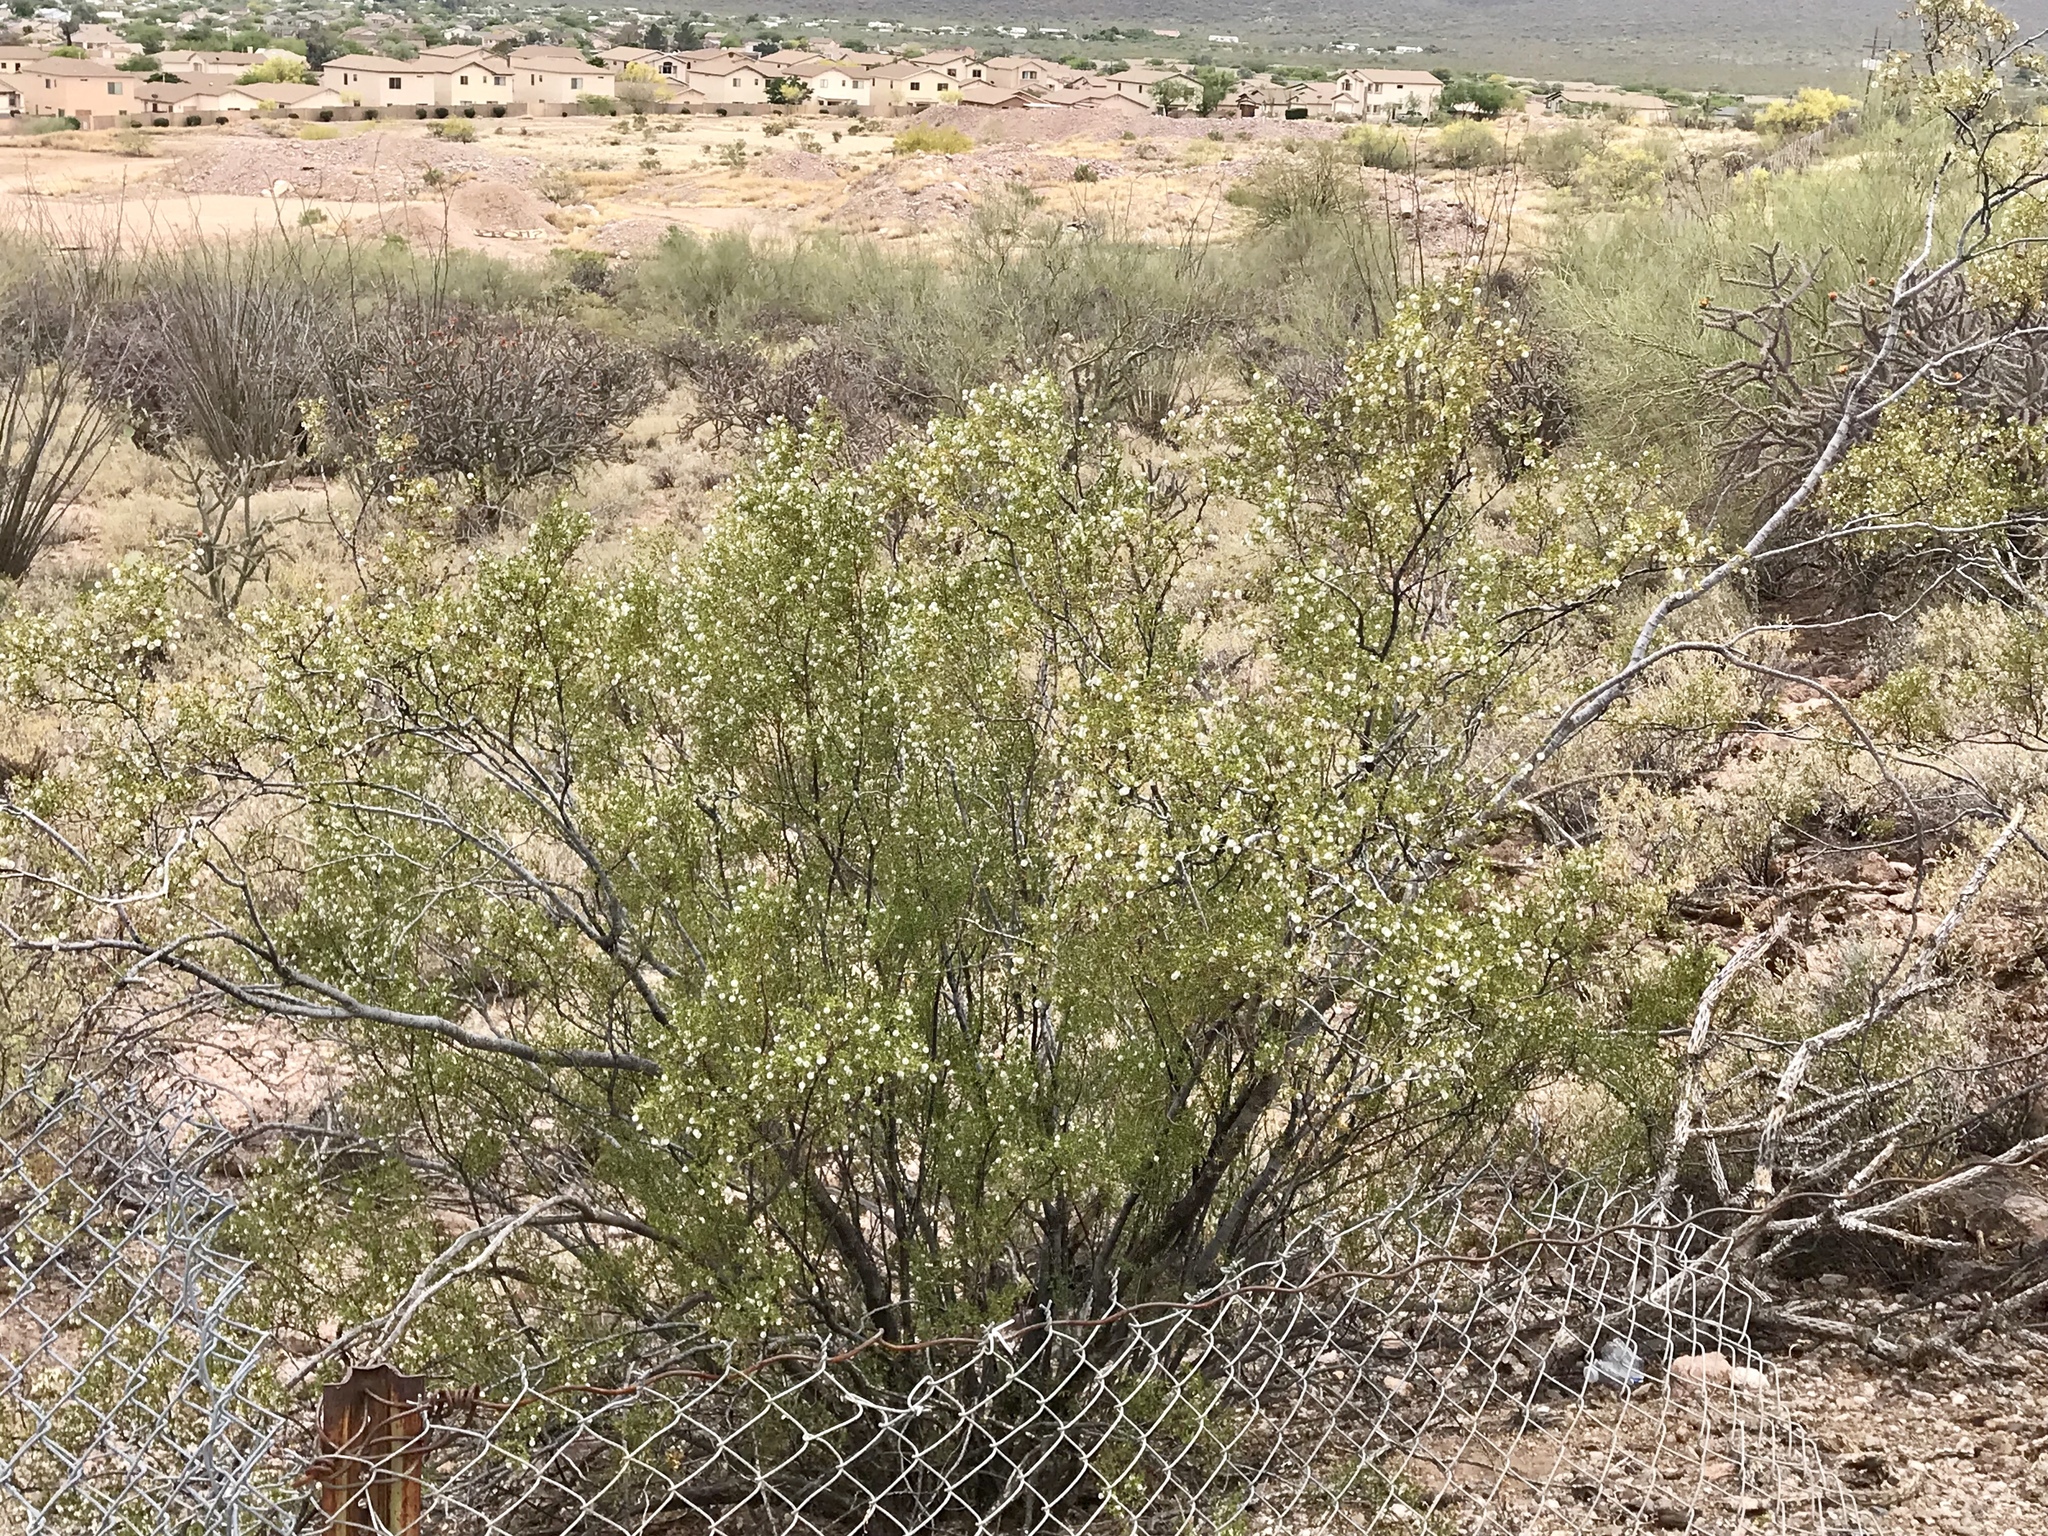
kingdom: Plantae
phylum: Tracheophyta
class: Magnoliopsida
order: Zygophyllales
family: Zygophyllaceae
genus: Larrea
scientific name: Larrea tridentata
